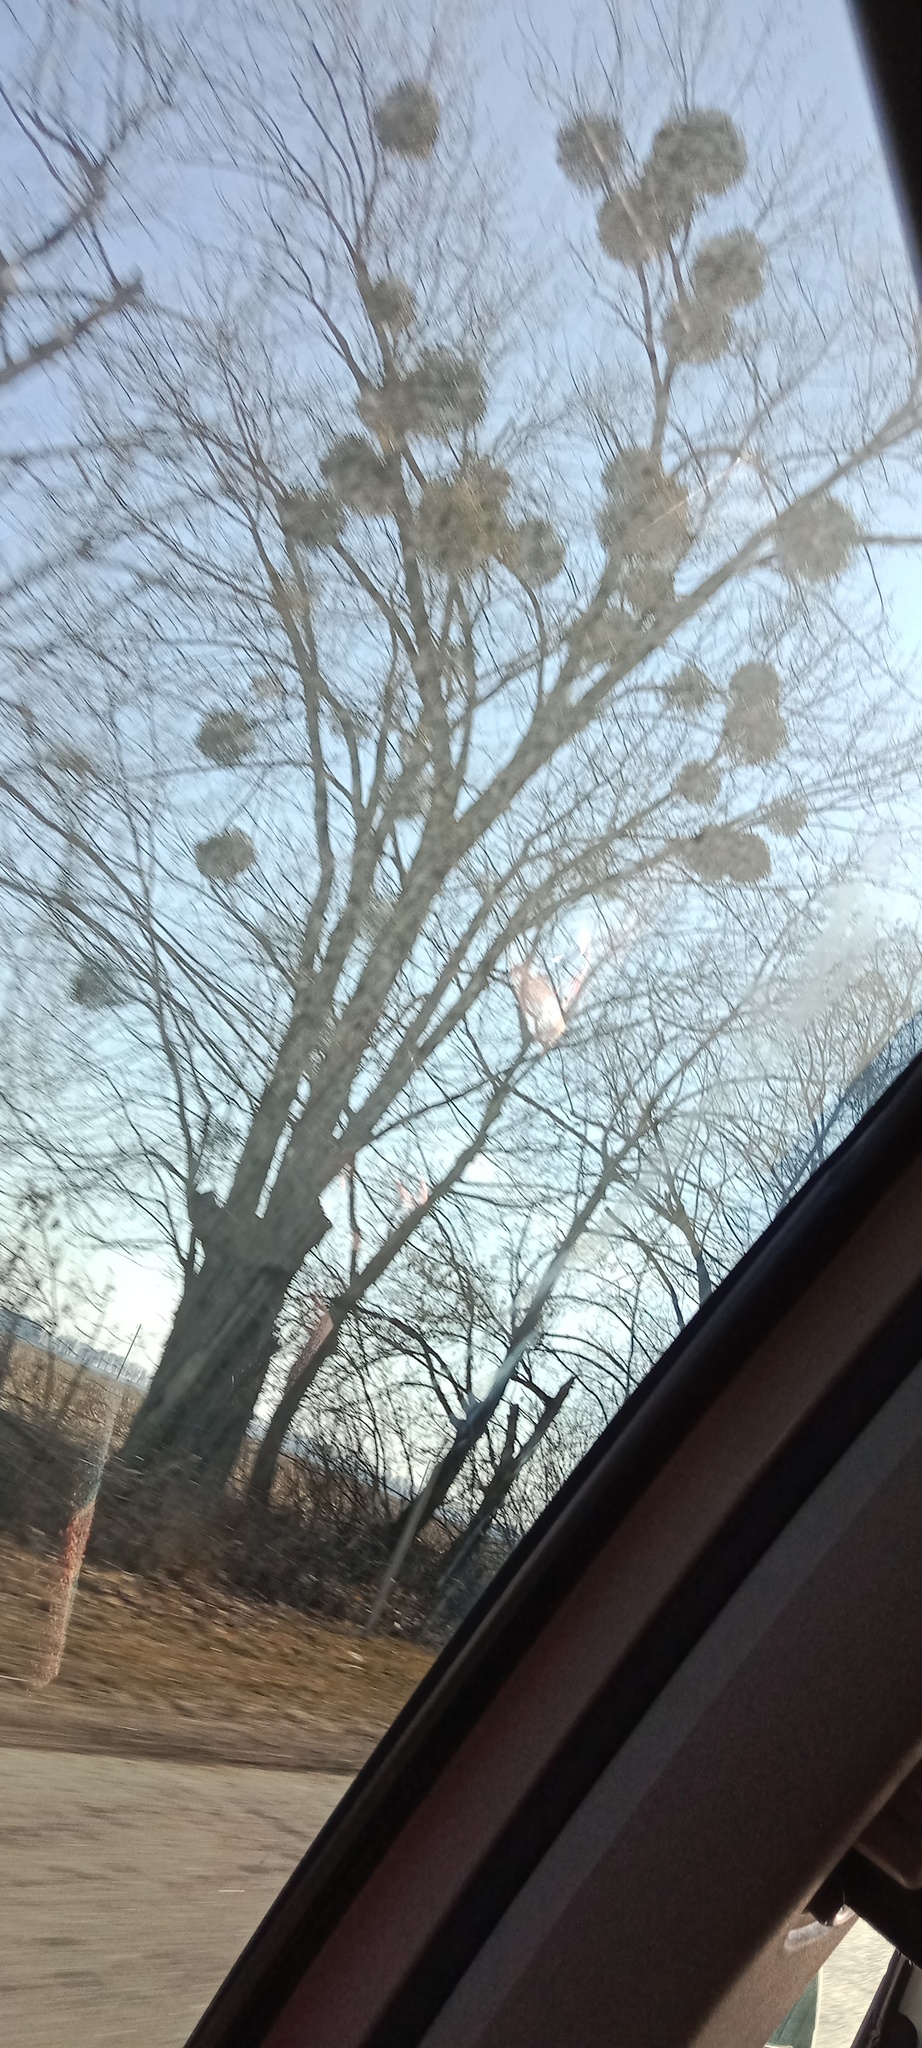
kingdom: Plantae
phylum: Tracheophyta
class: Magnoliopsida
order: Santalales
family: Viscaceae
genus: Viscum
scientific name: Viscum album
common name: Mistletoe
